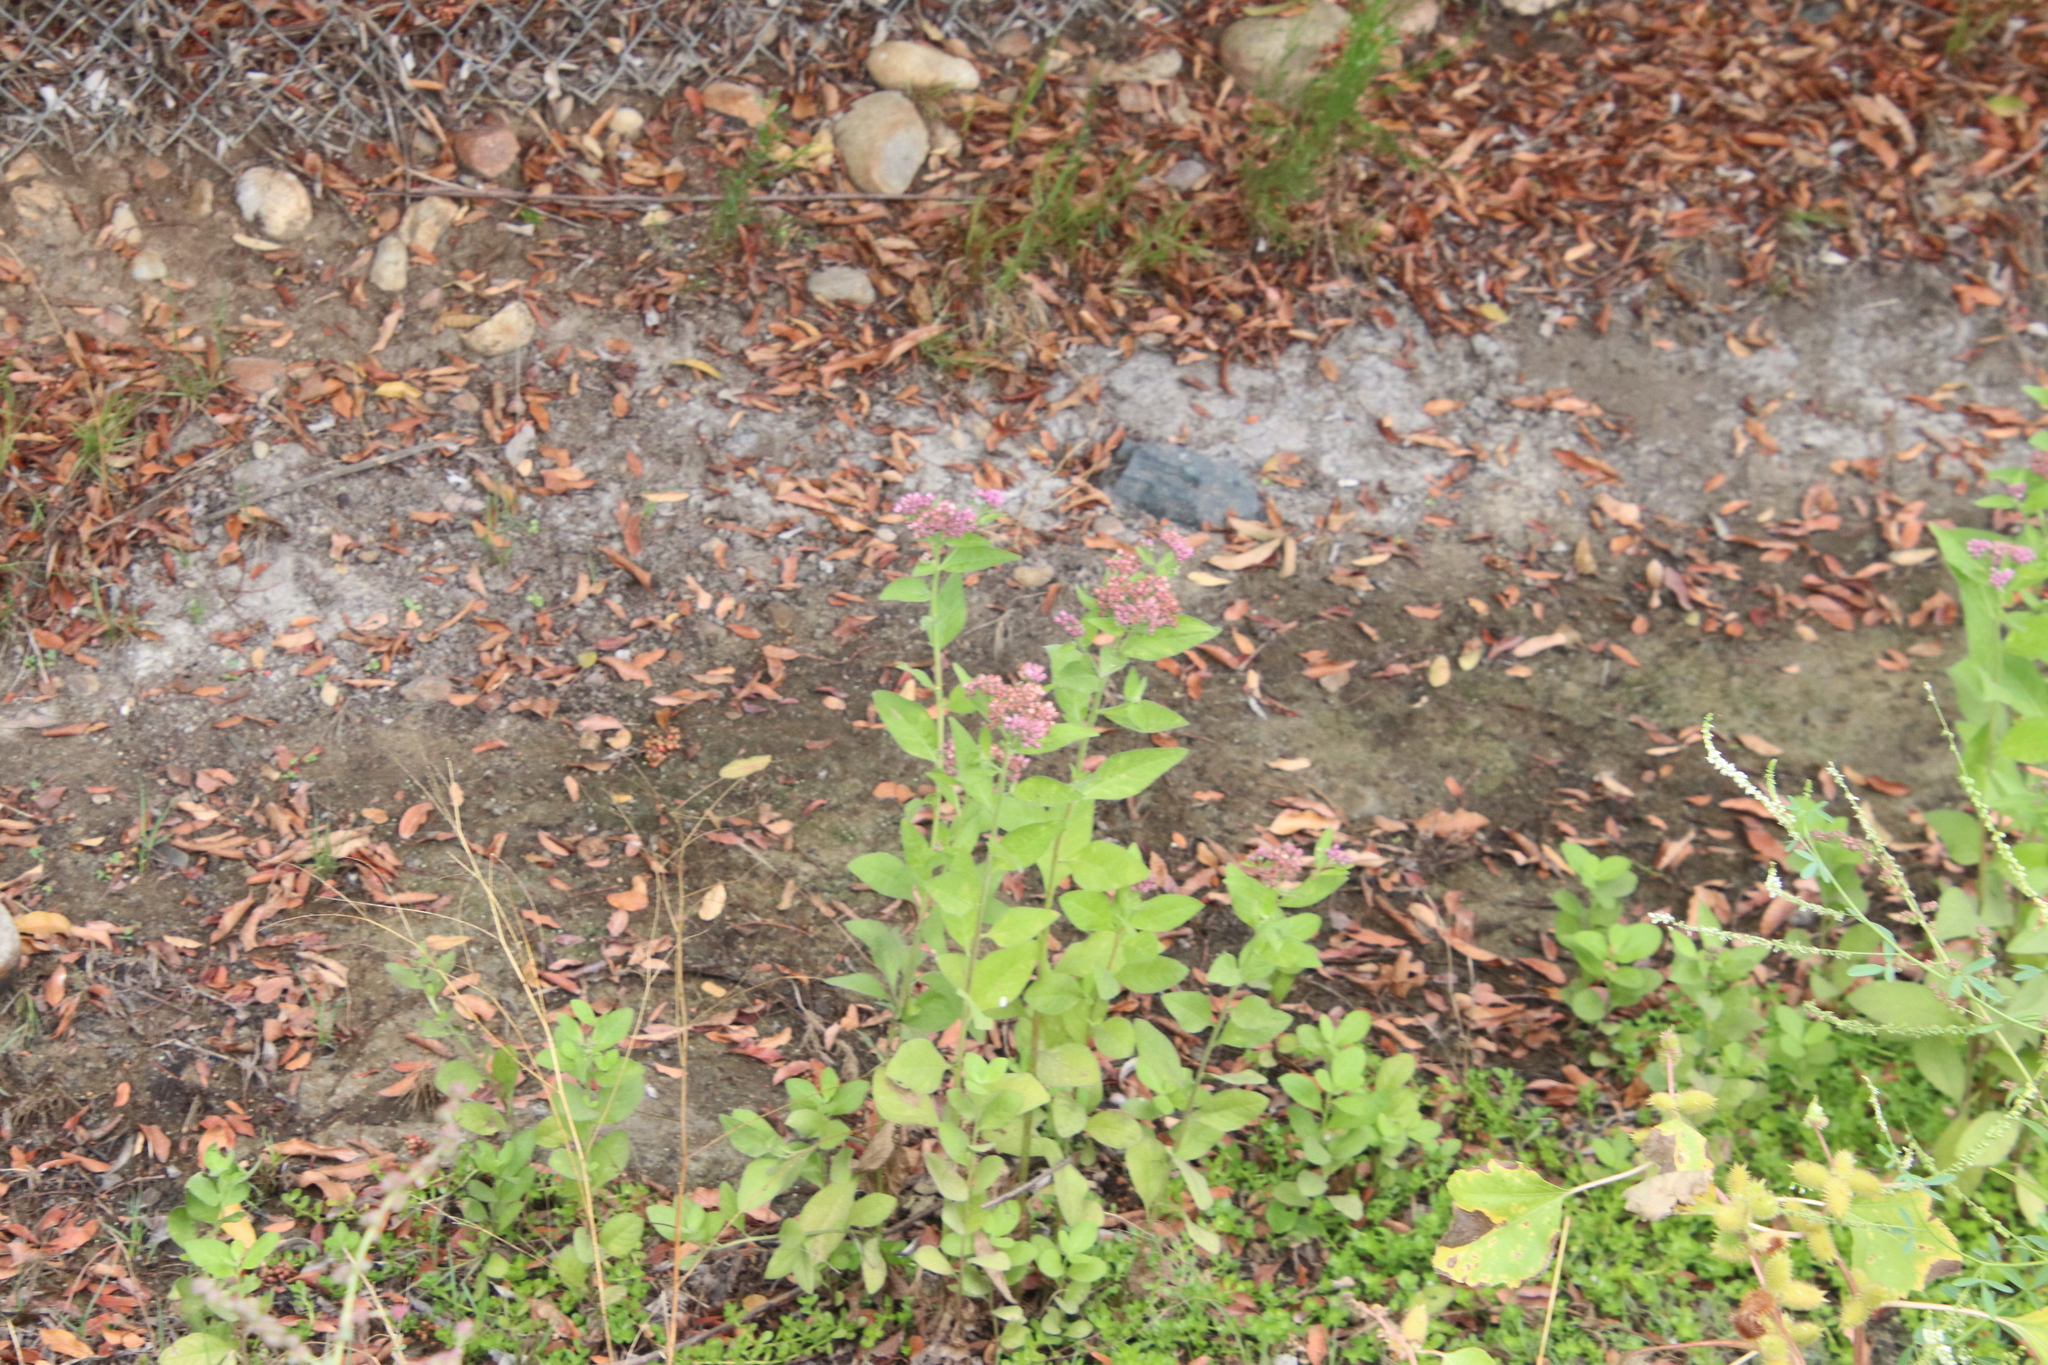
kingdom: Plantae
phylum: Tracheophyta
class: Magnoliopsida
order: Asterales
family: Asteraceae
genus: Pluchea
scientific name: Pluchea odorata
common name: Saltmarsh fleabane
